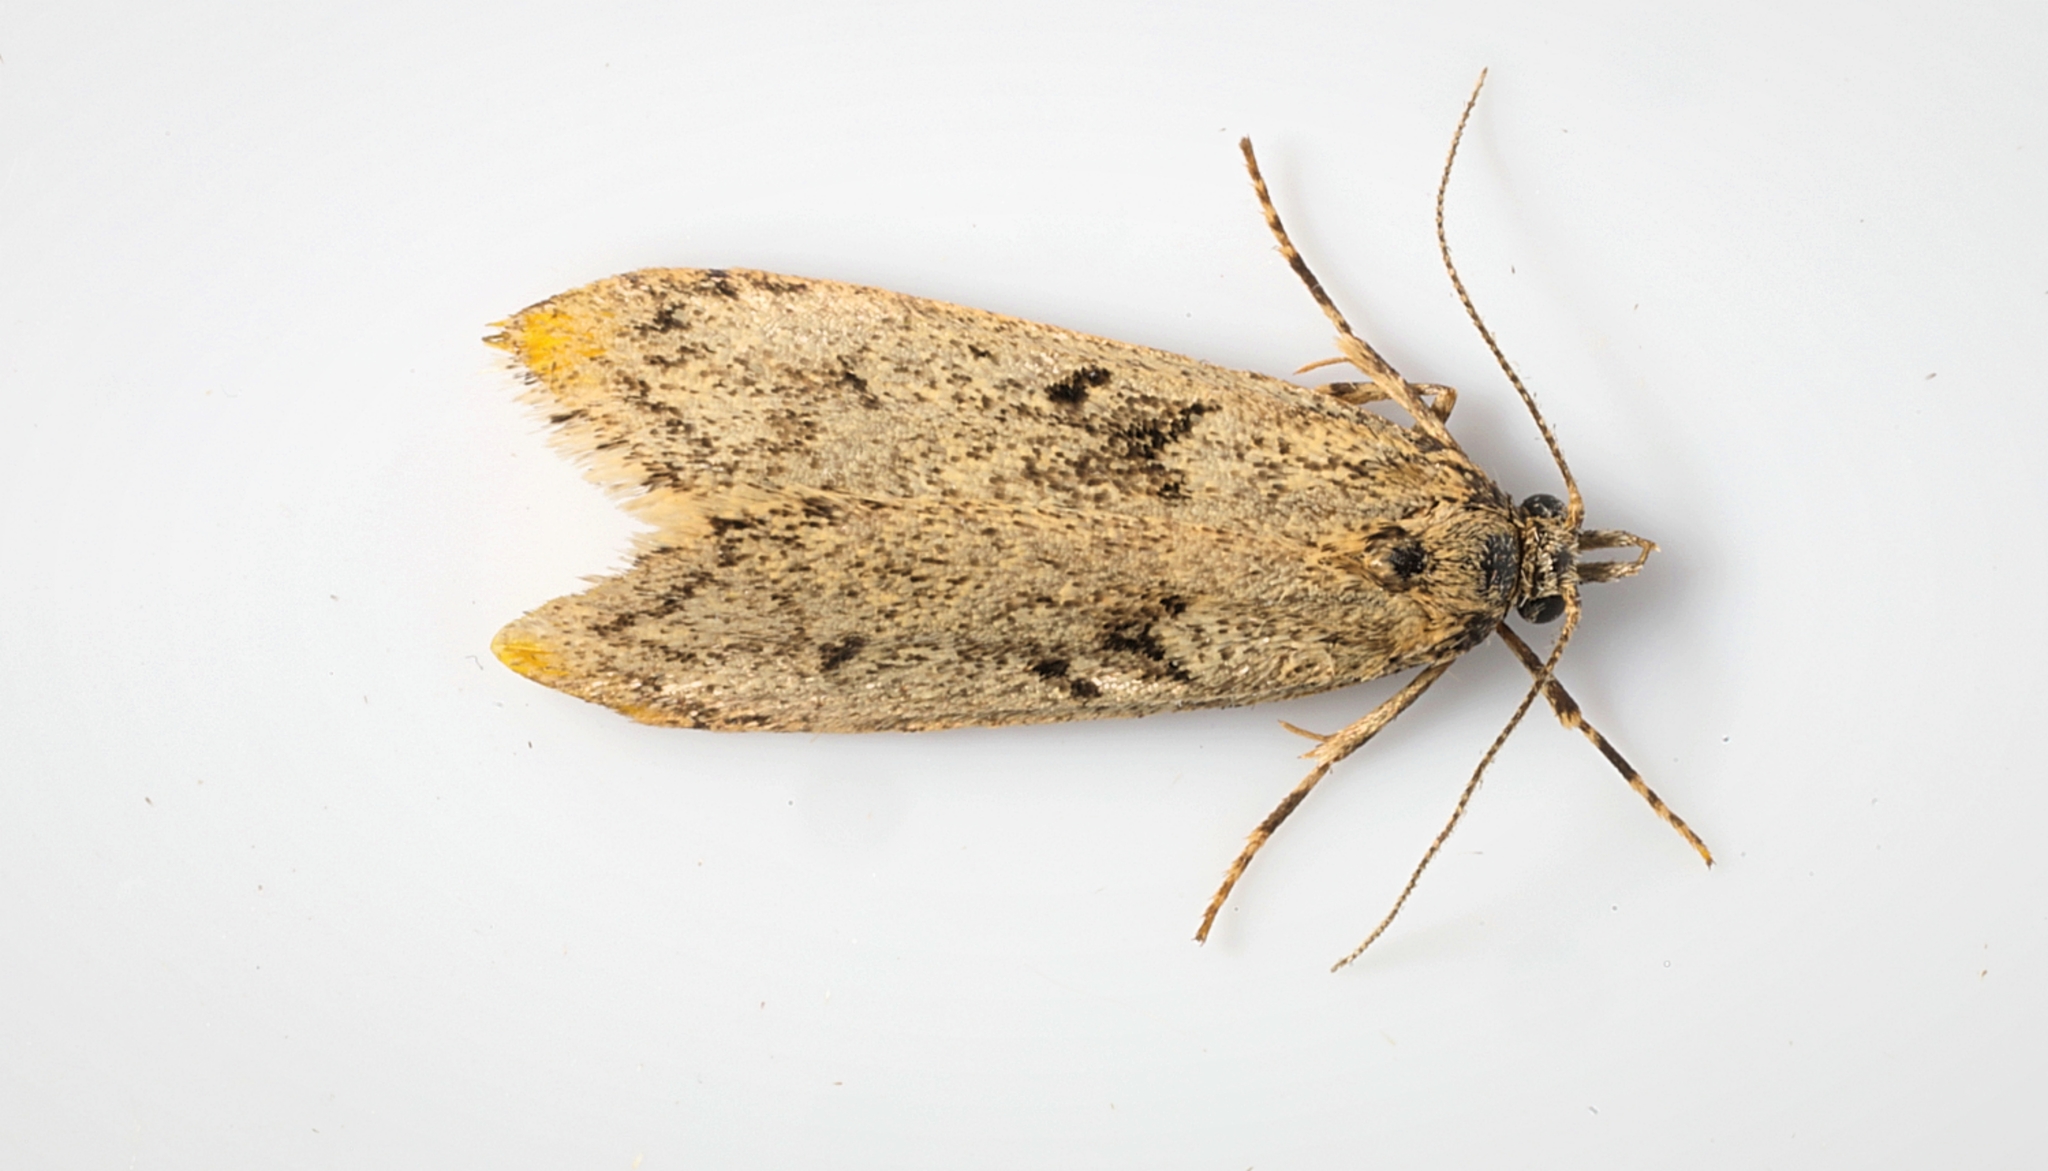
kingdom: Animalia
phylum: Arthropoda
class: Insecta
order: Lepidoptera
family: Lypusidae
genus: Diurnea
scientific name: Diurnea fagella
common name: March tubic
